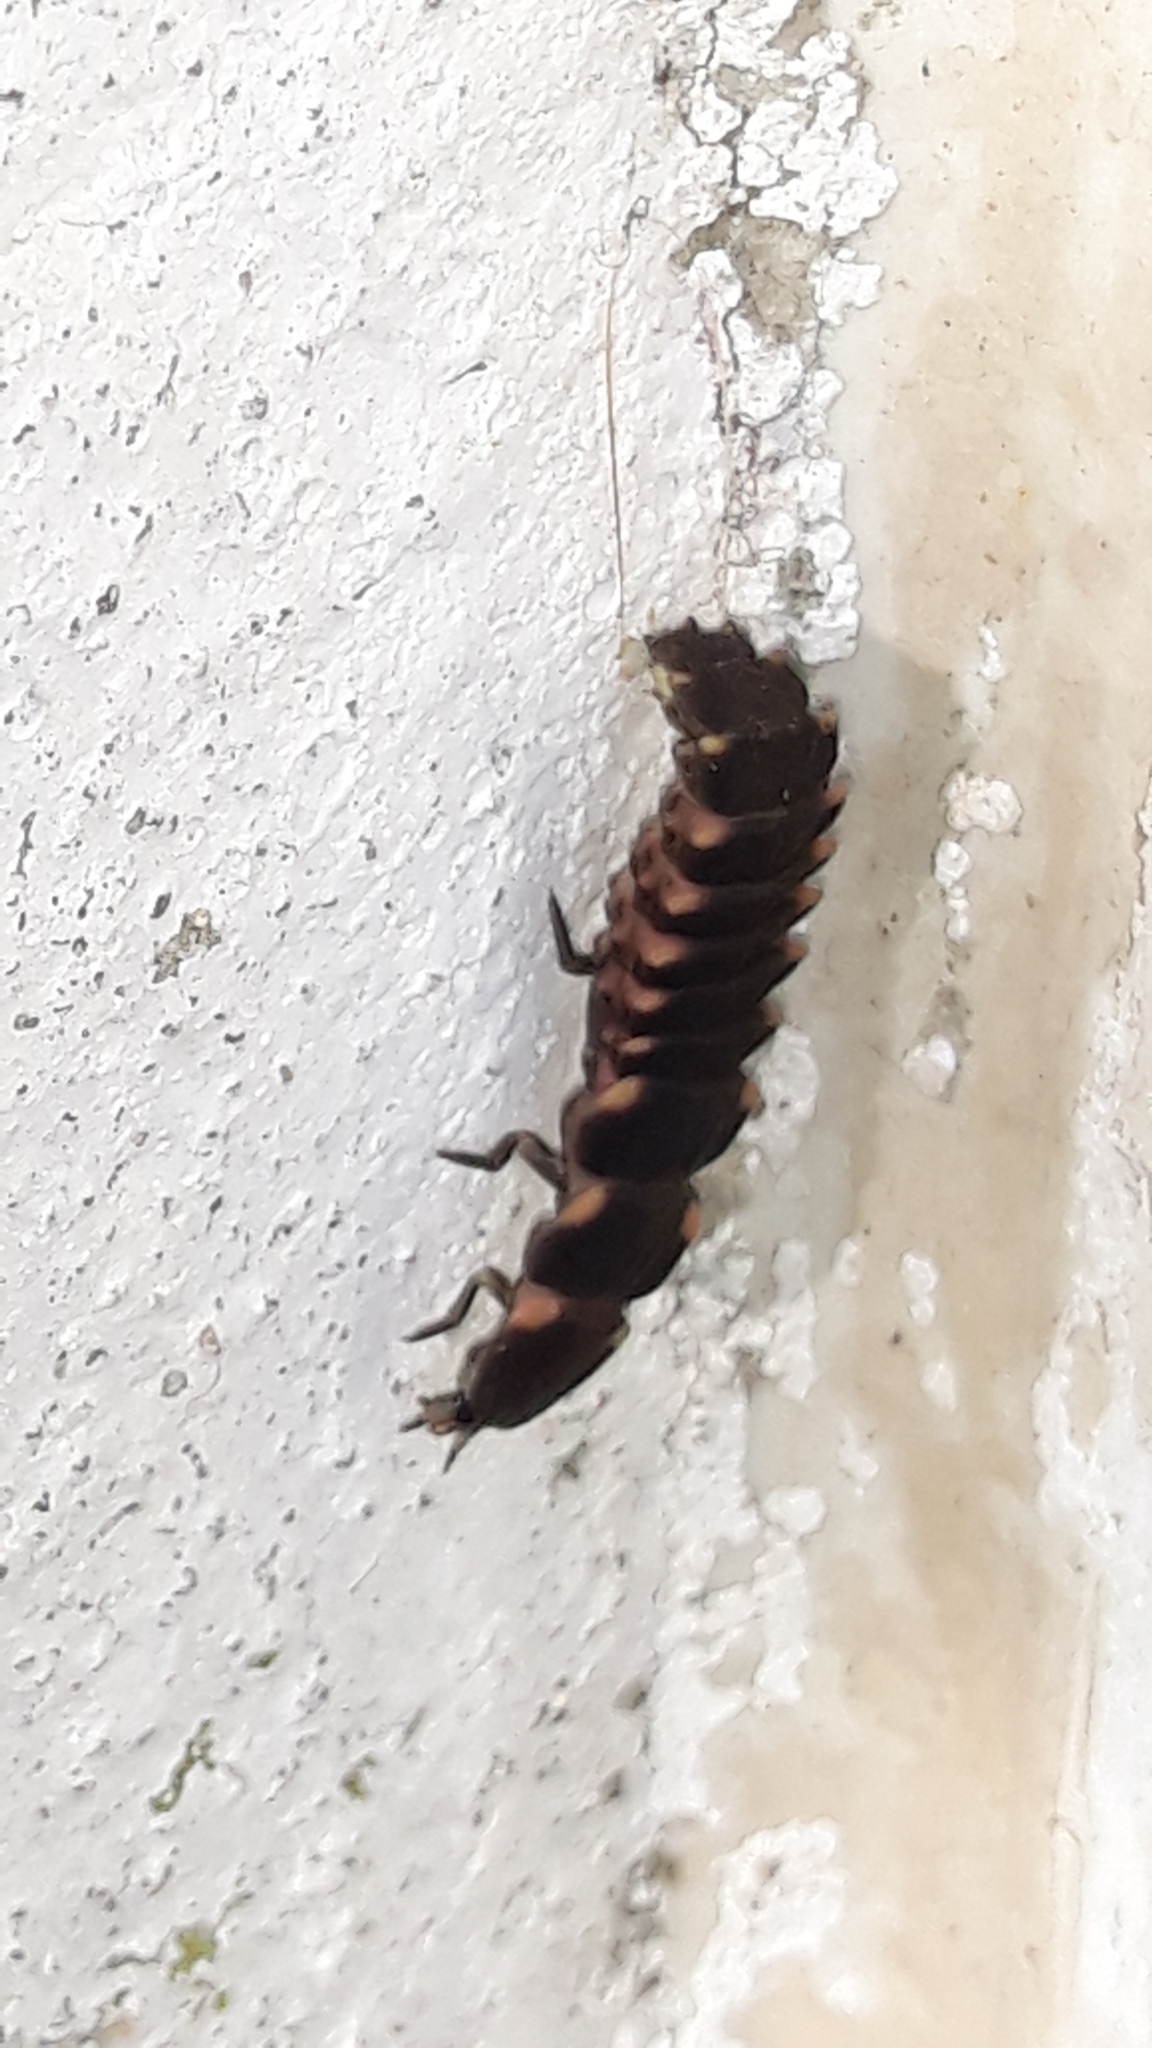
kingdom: Animalia
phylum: Arthropoda
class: Insecta
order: Coleoptera
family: Lampyridae
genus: Lampyris
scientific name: Lampyris
